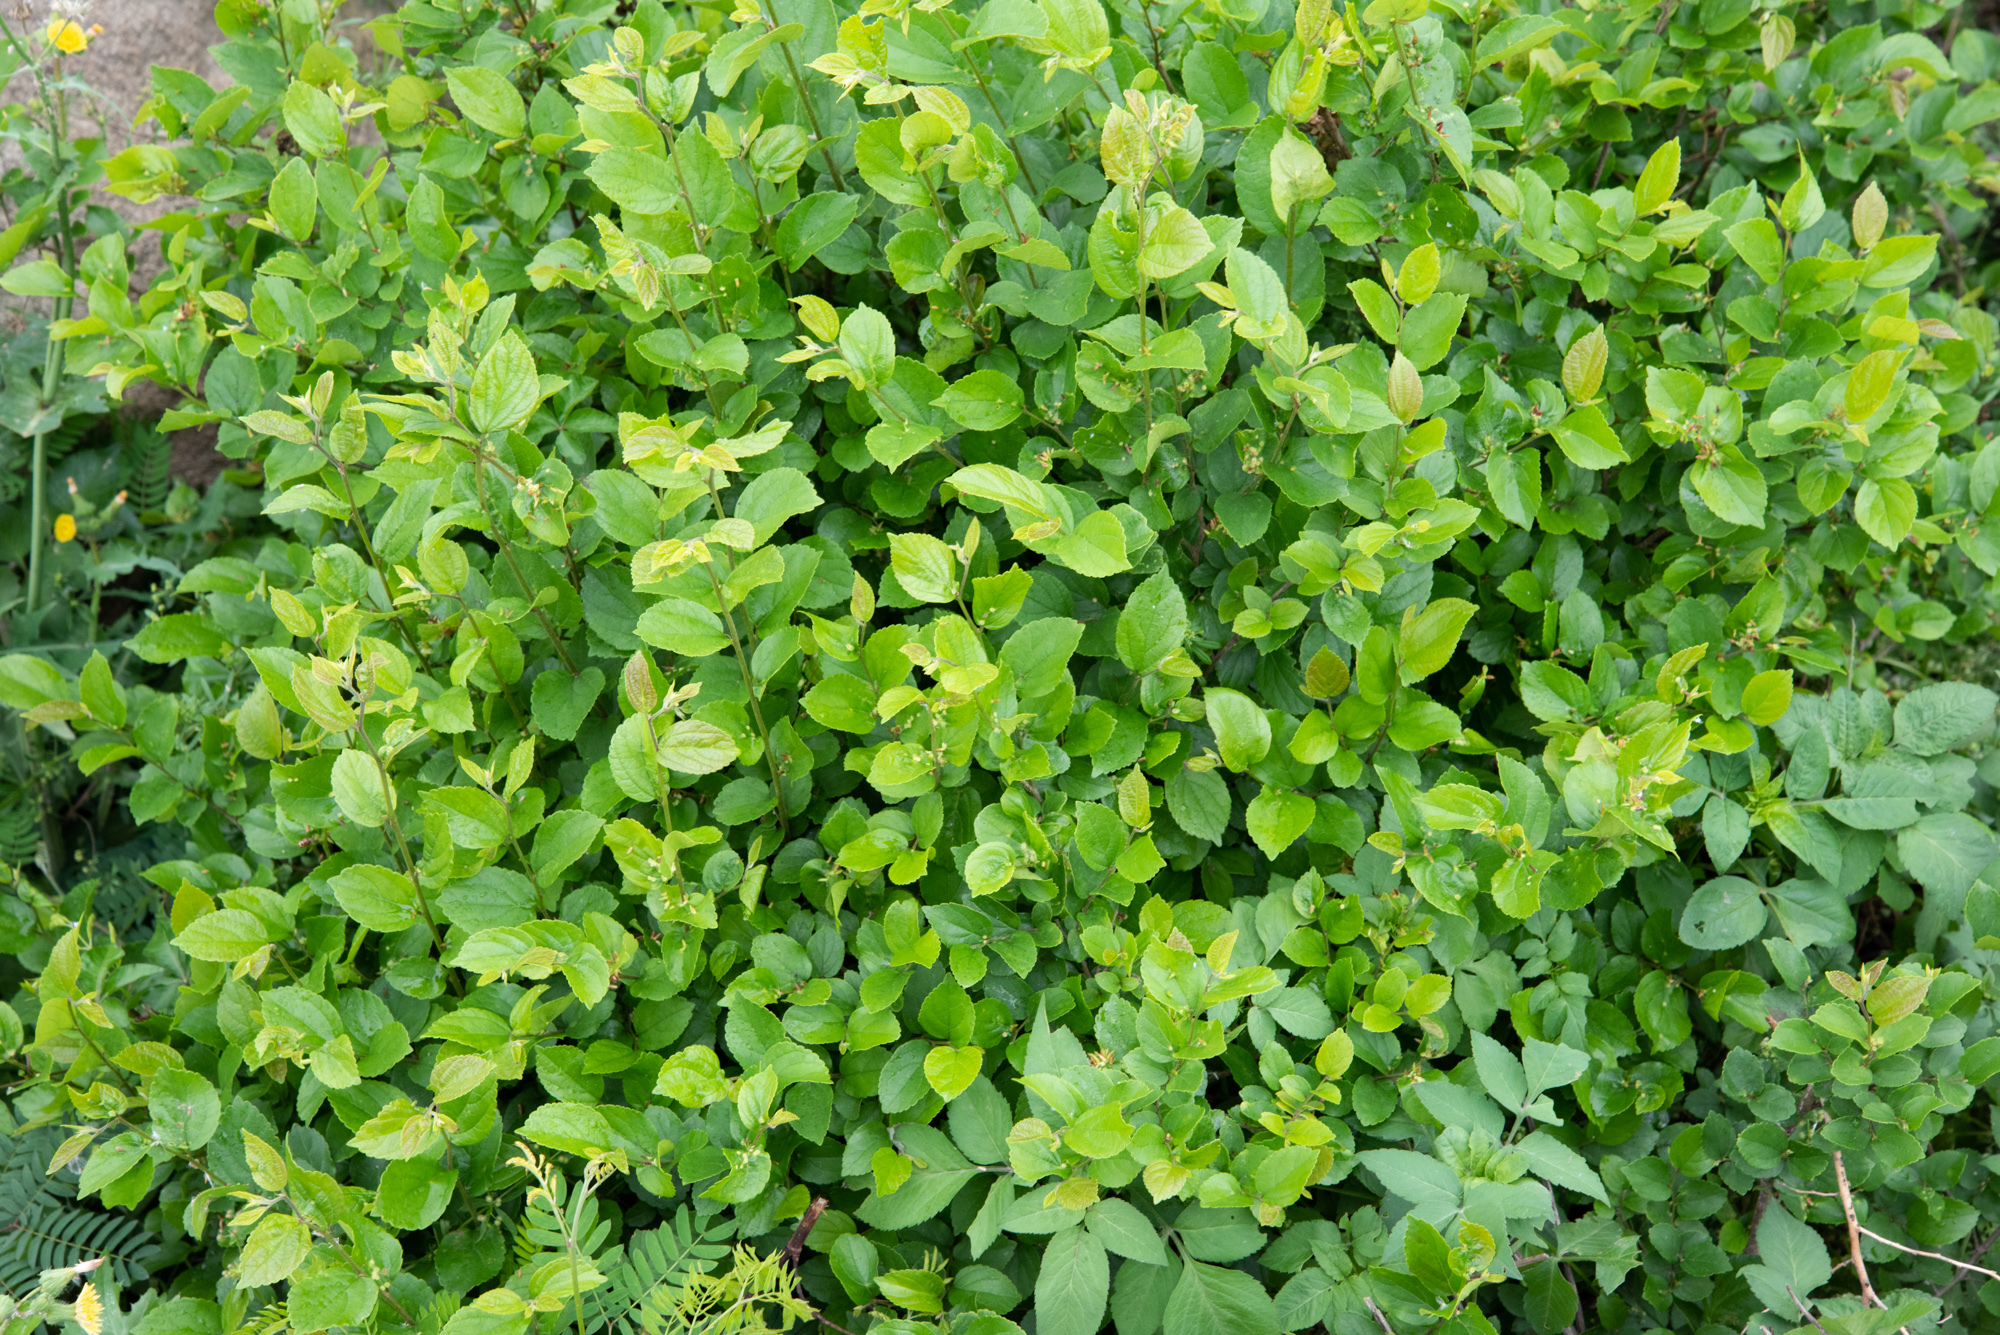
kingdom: Plantae
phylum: Tracheophyta
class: Magnoliopsida
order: Rosales
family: Cannabaceae
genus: Celtis
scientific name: Celtis sinensis
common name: Chinese hackberry
